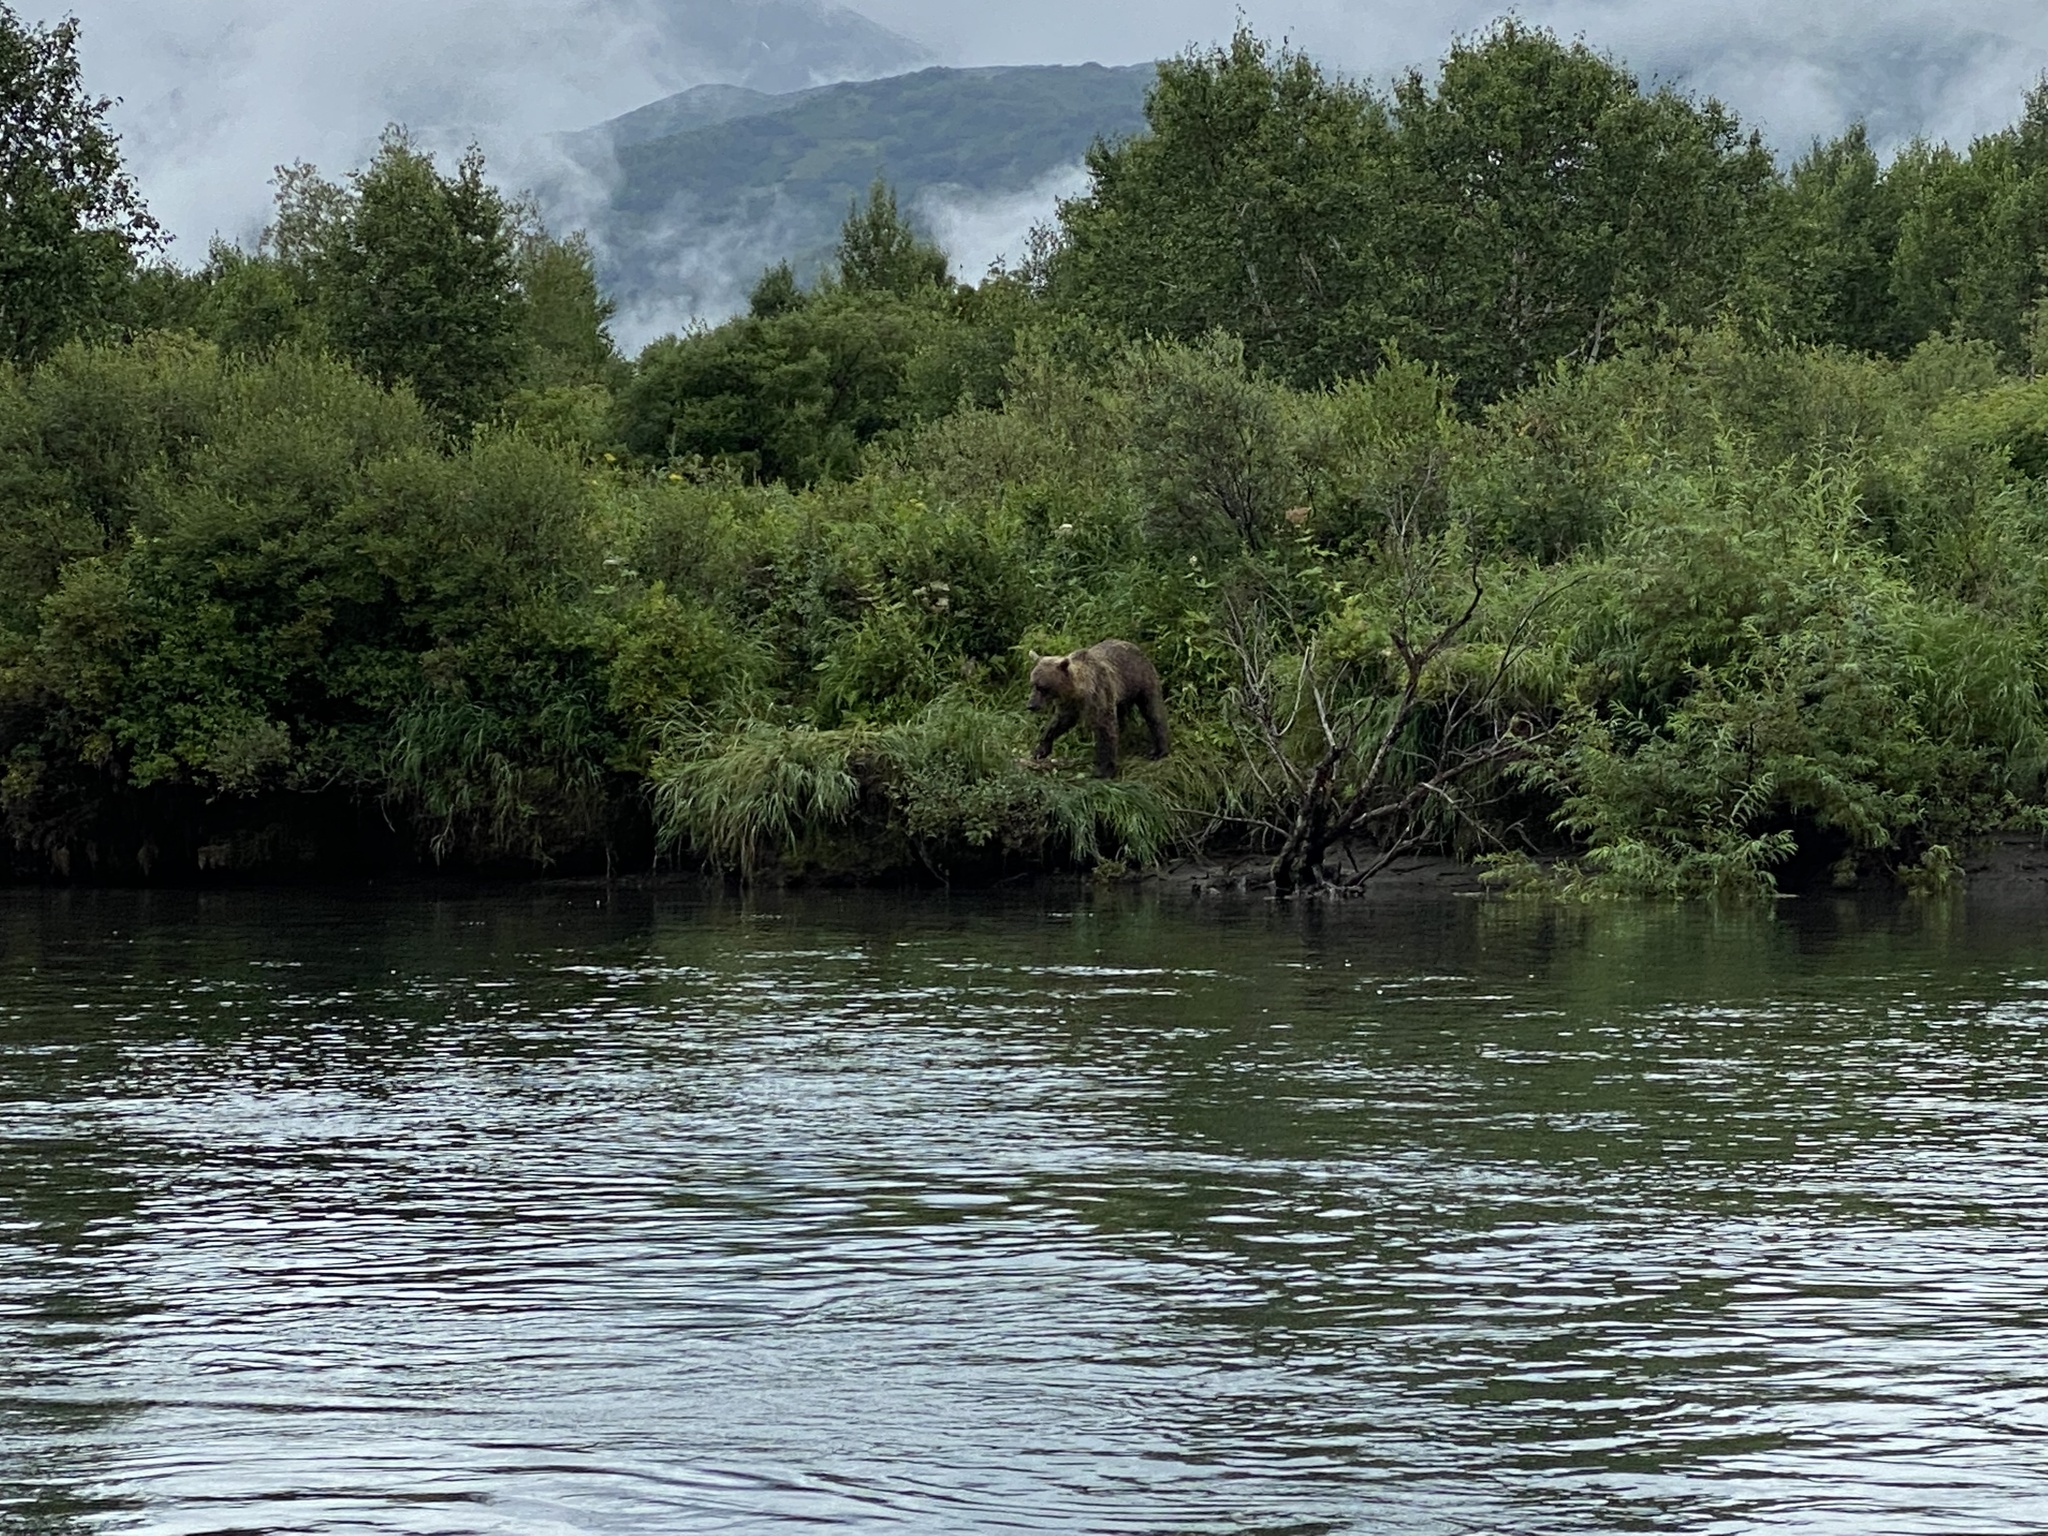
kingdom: Animalia
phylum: Chordata
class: Mammalia
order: Carnivora
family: Ursidae
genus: Ursus
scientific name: Ursus arctos
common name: Brown bear
